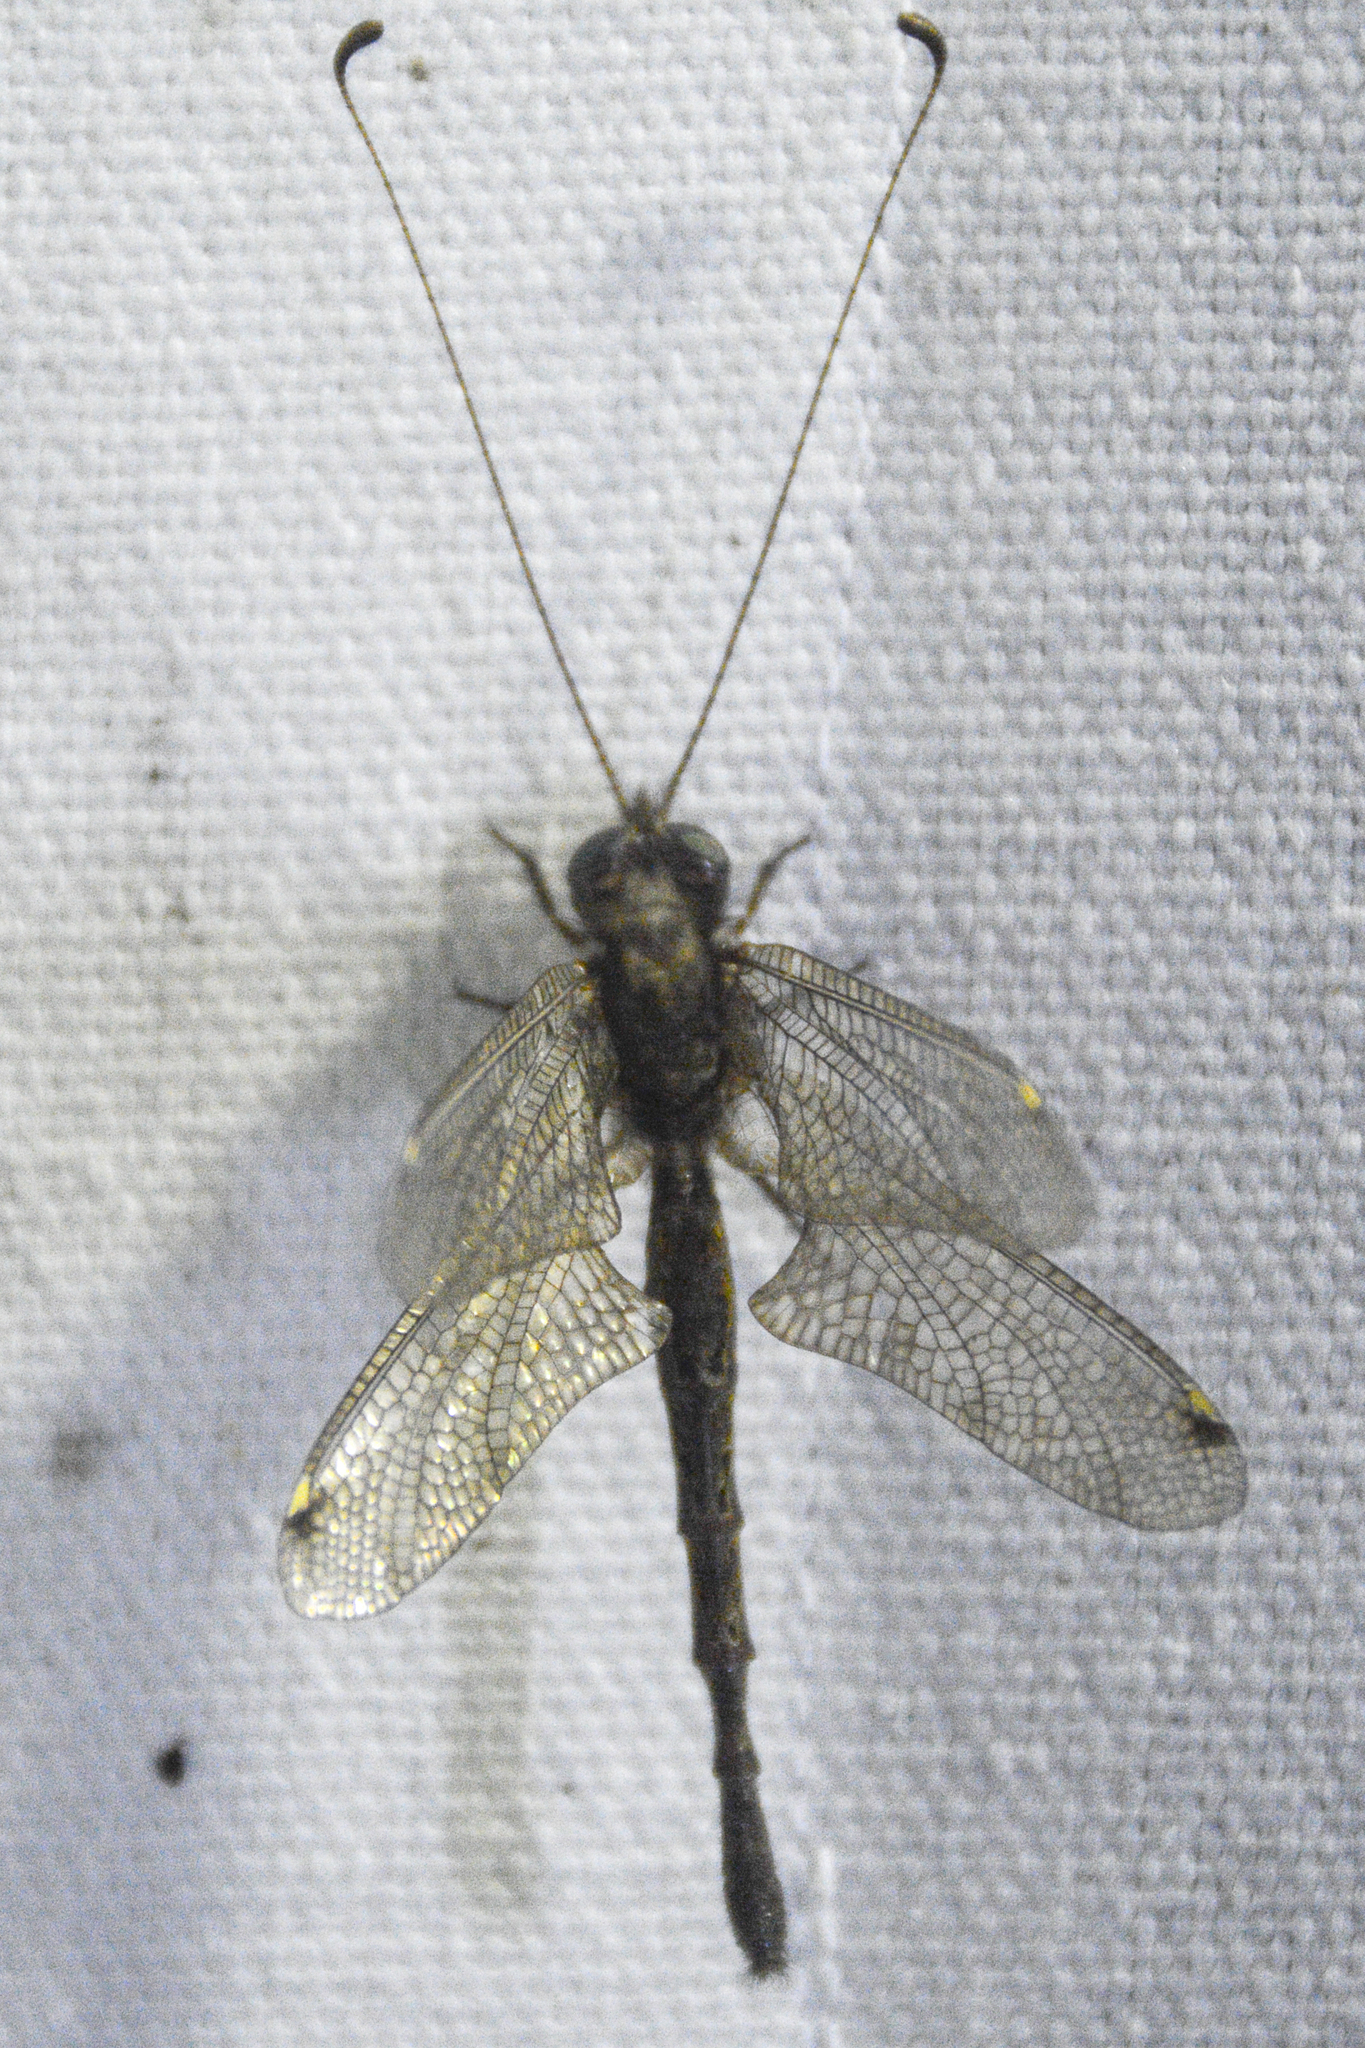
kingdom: Animalia
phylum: Arthropoda
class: Insecta
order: Neuroptera
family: Ascalaphidae
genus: Ululodes
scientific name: Ululodes quadripunctatus
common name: Four-spotted owlfly
